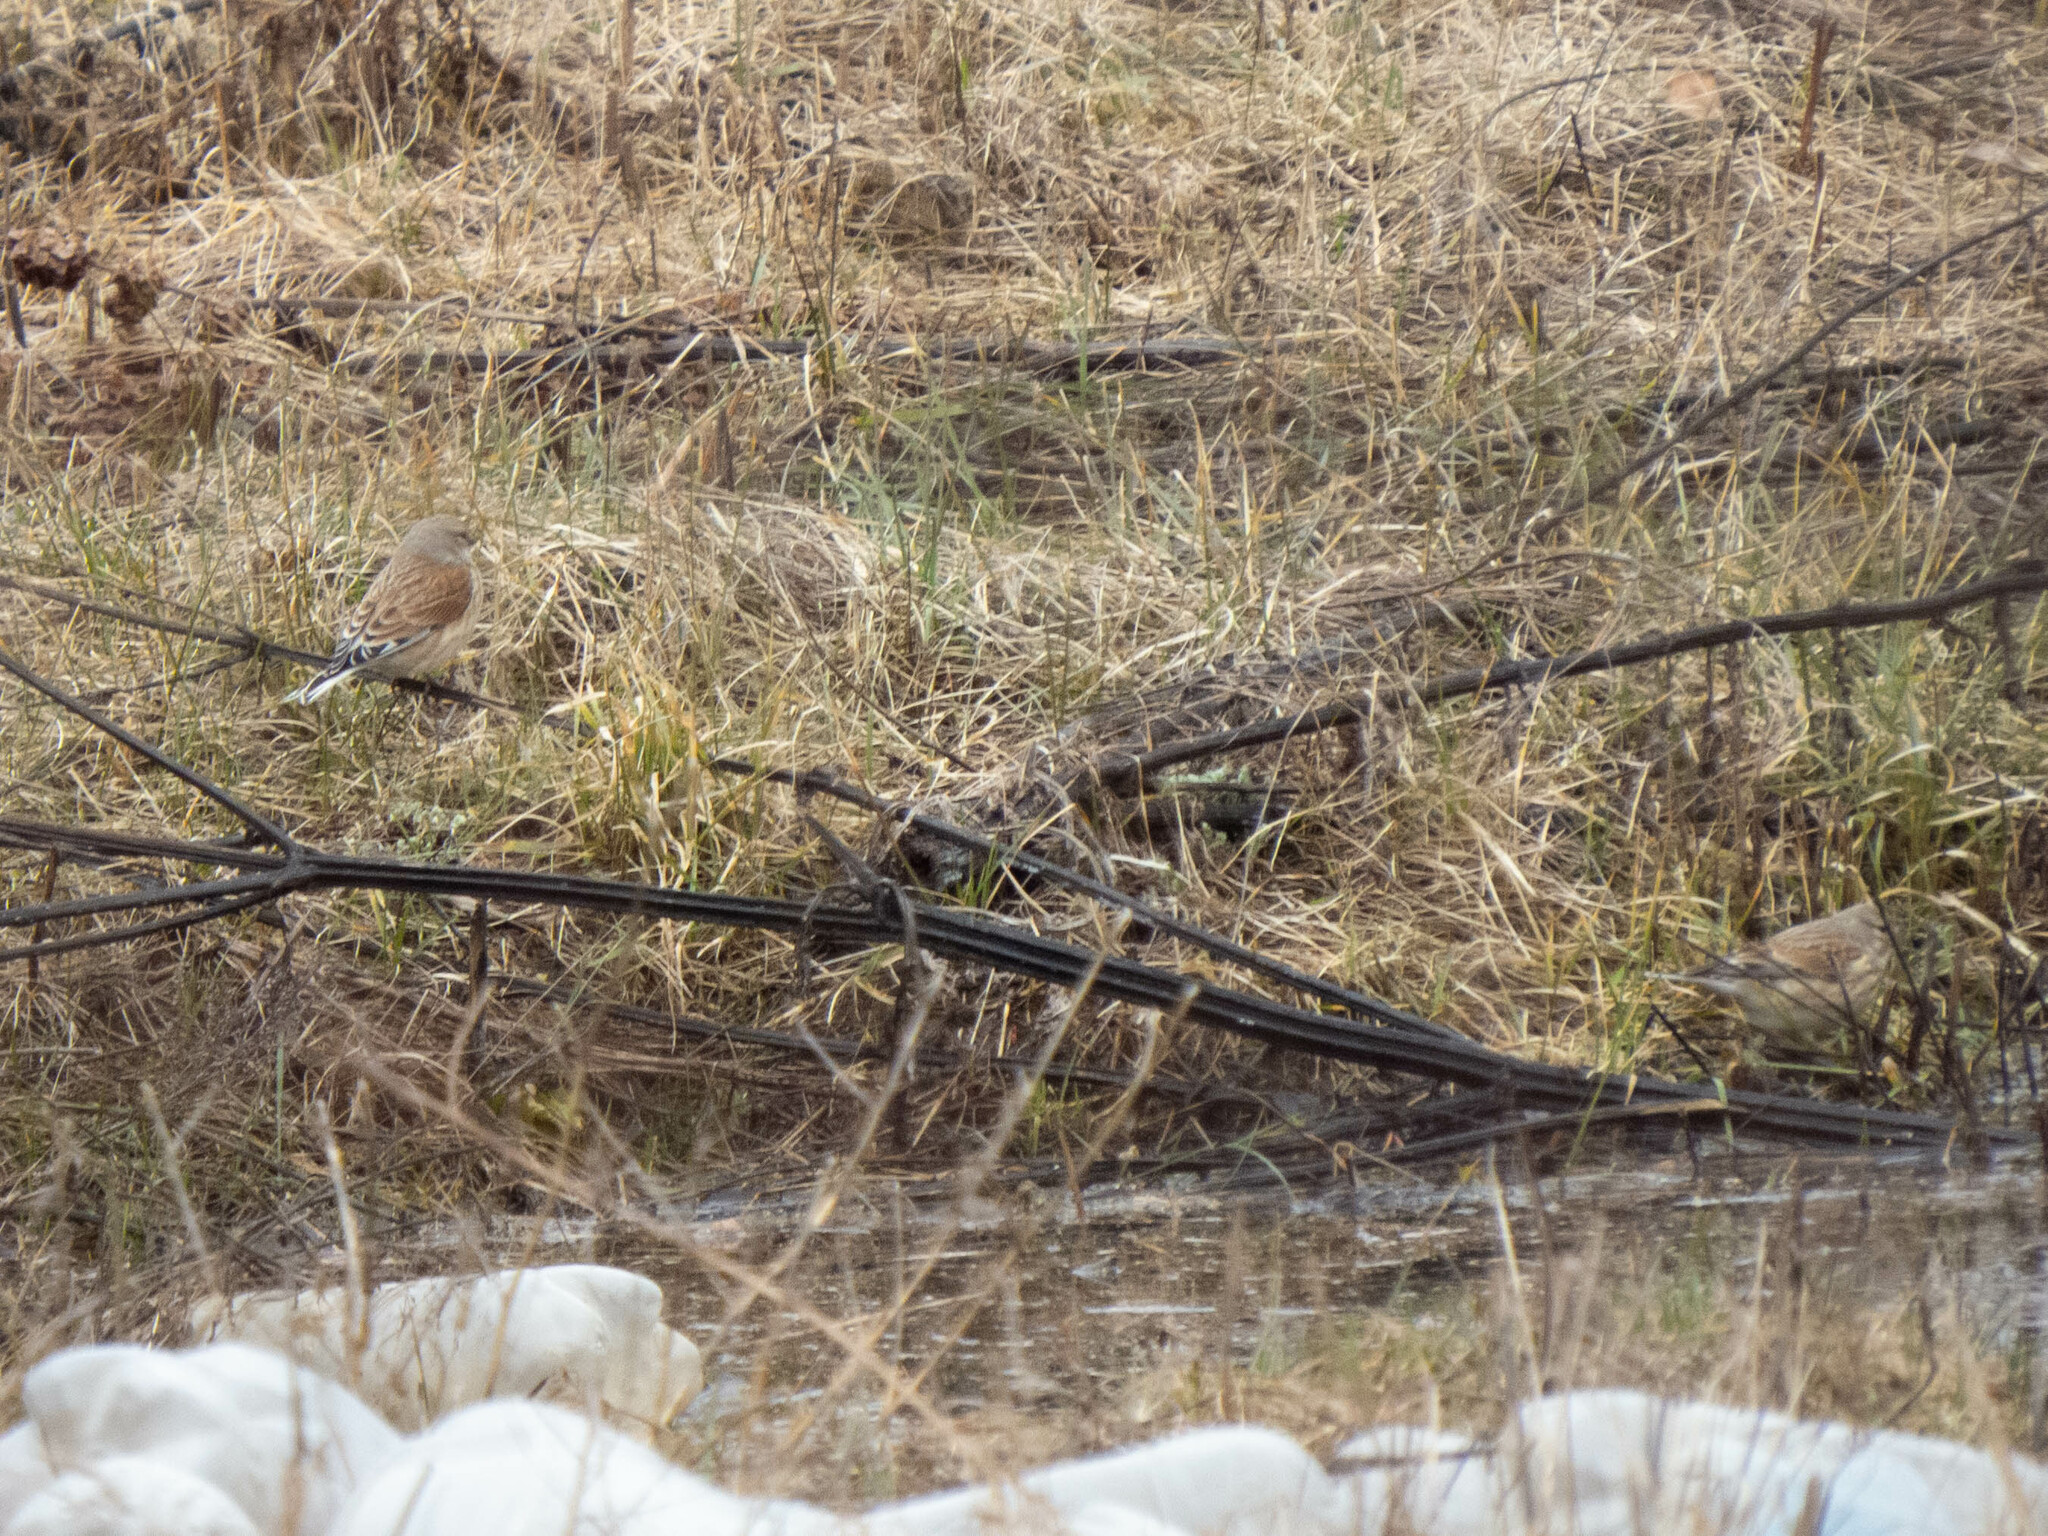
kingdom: Animalia
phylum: Chordata
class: Aves
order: Passeriformes
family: Fringillidae
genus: Linaria
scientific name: Linaria cannabina
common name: Common linnet
